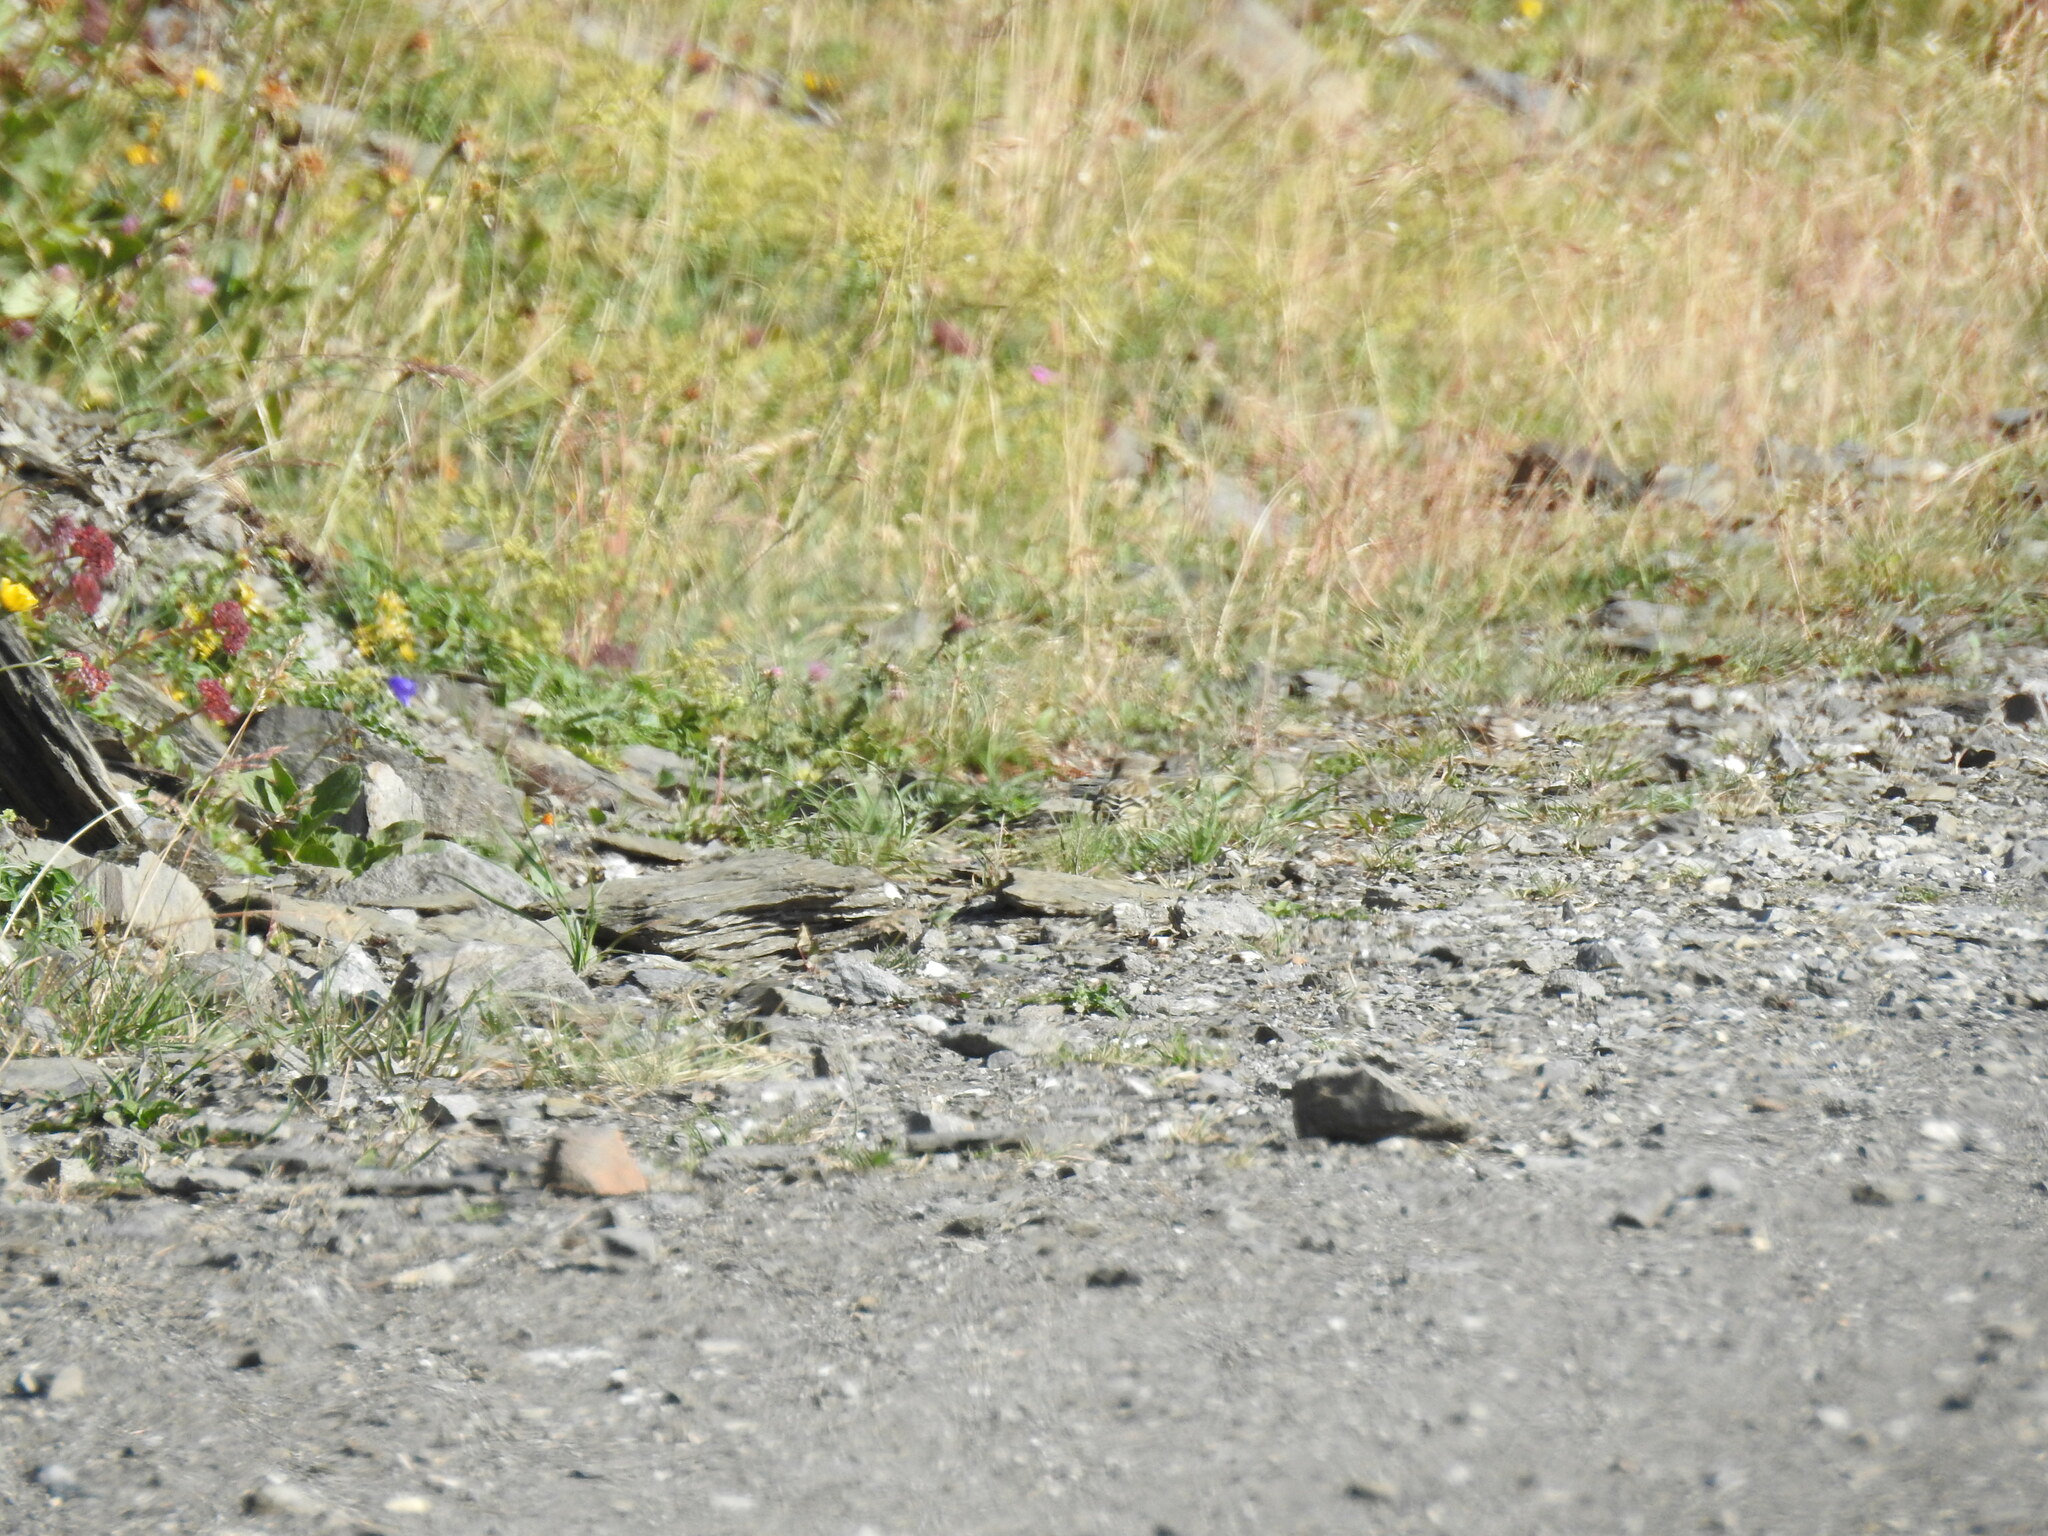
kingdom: Animalia
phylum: Chordata
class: Aves
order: Passeriformes
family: Fringillidae
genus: Carduelis
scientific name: Carduelis citrinella
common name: Citril finch
